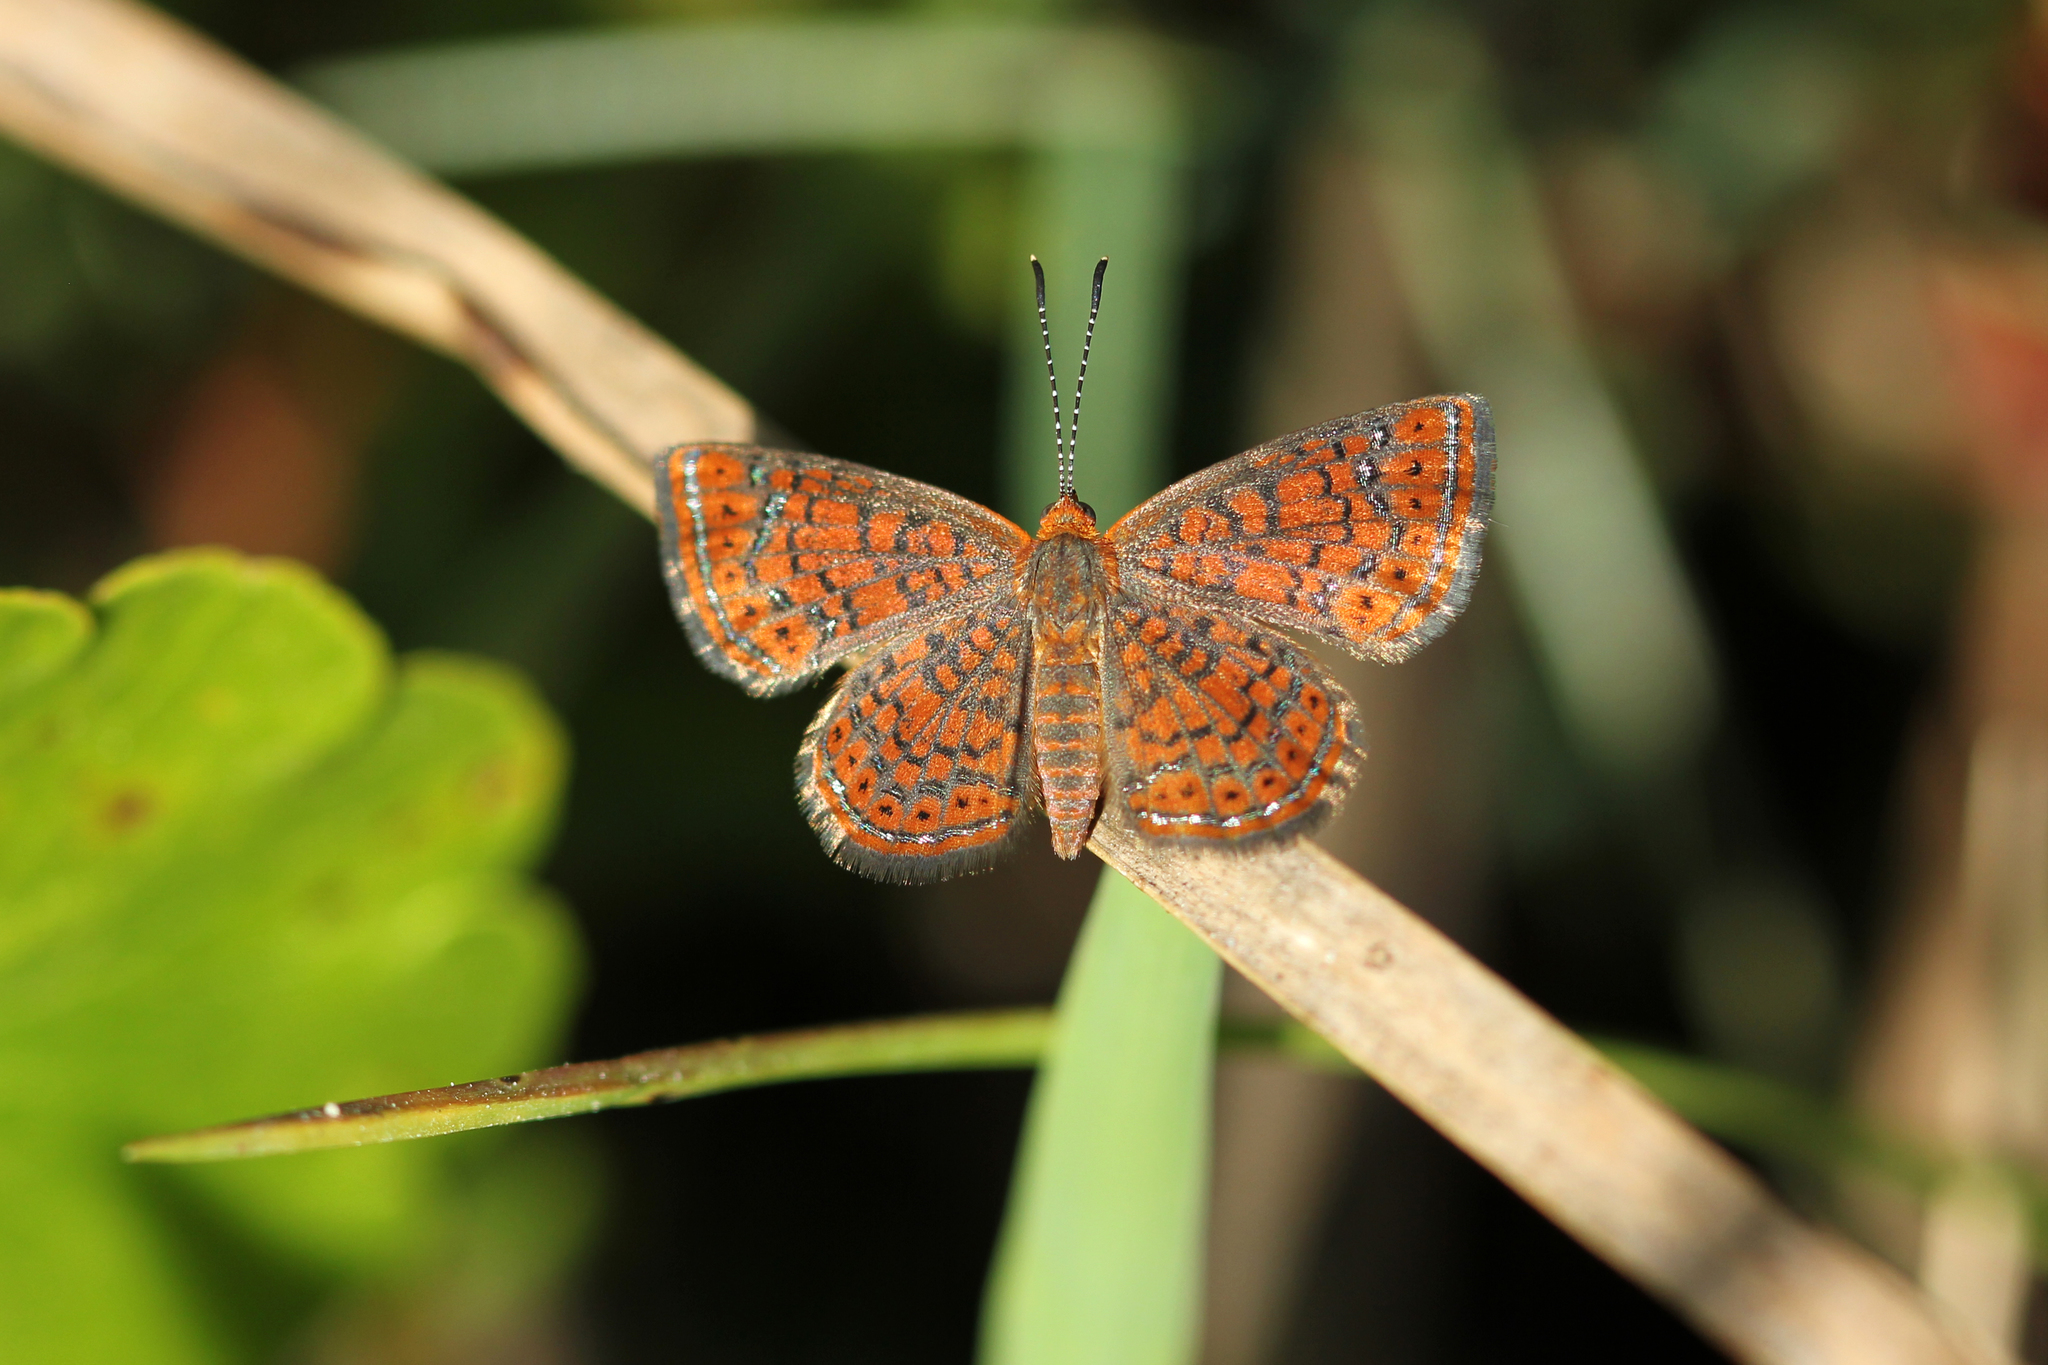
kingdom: Animalia
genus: Calephelis
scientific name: Calephelis virginiensis
